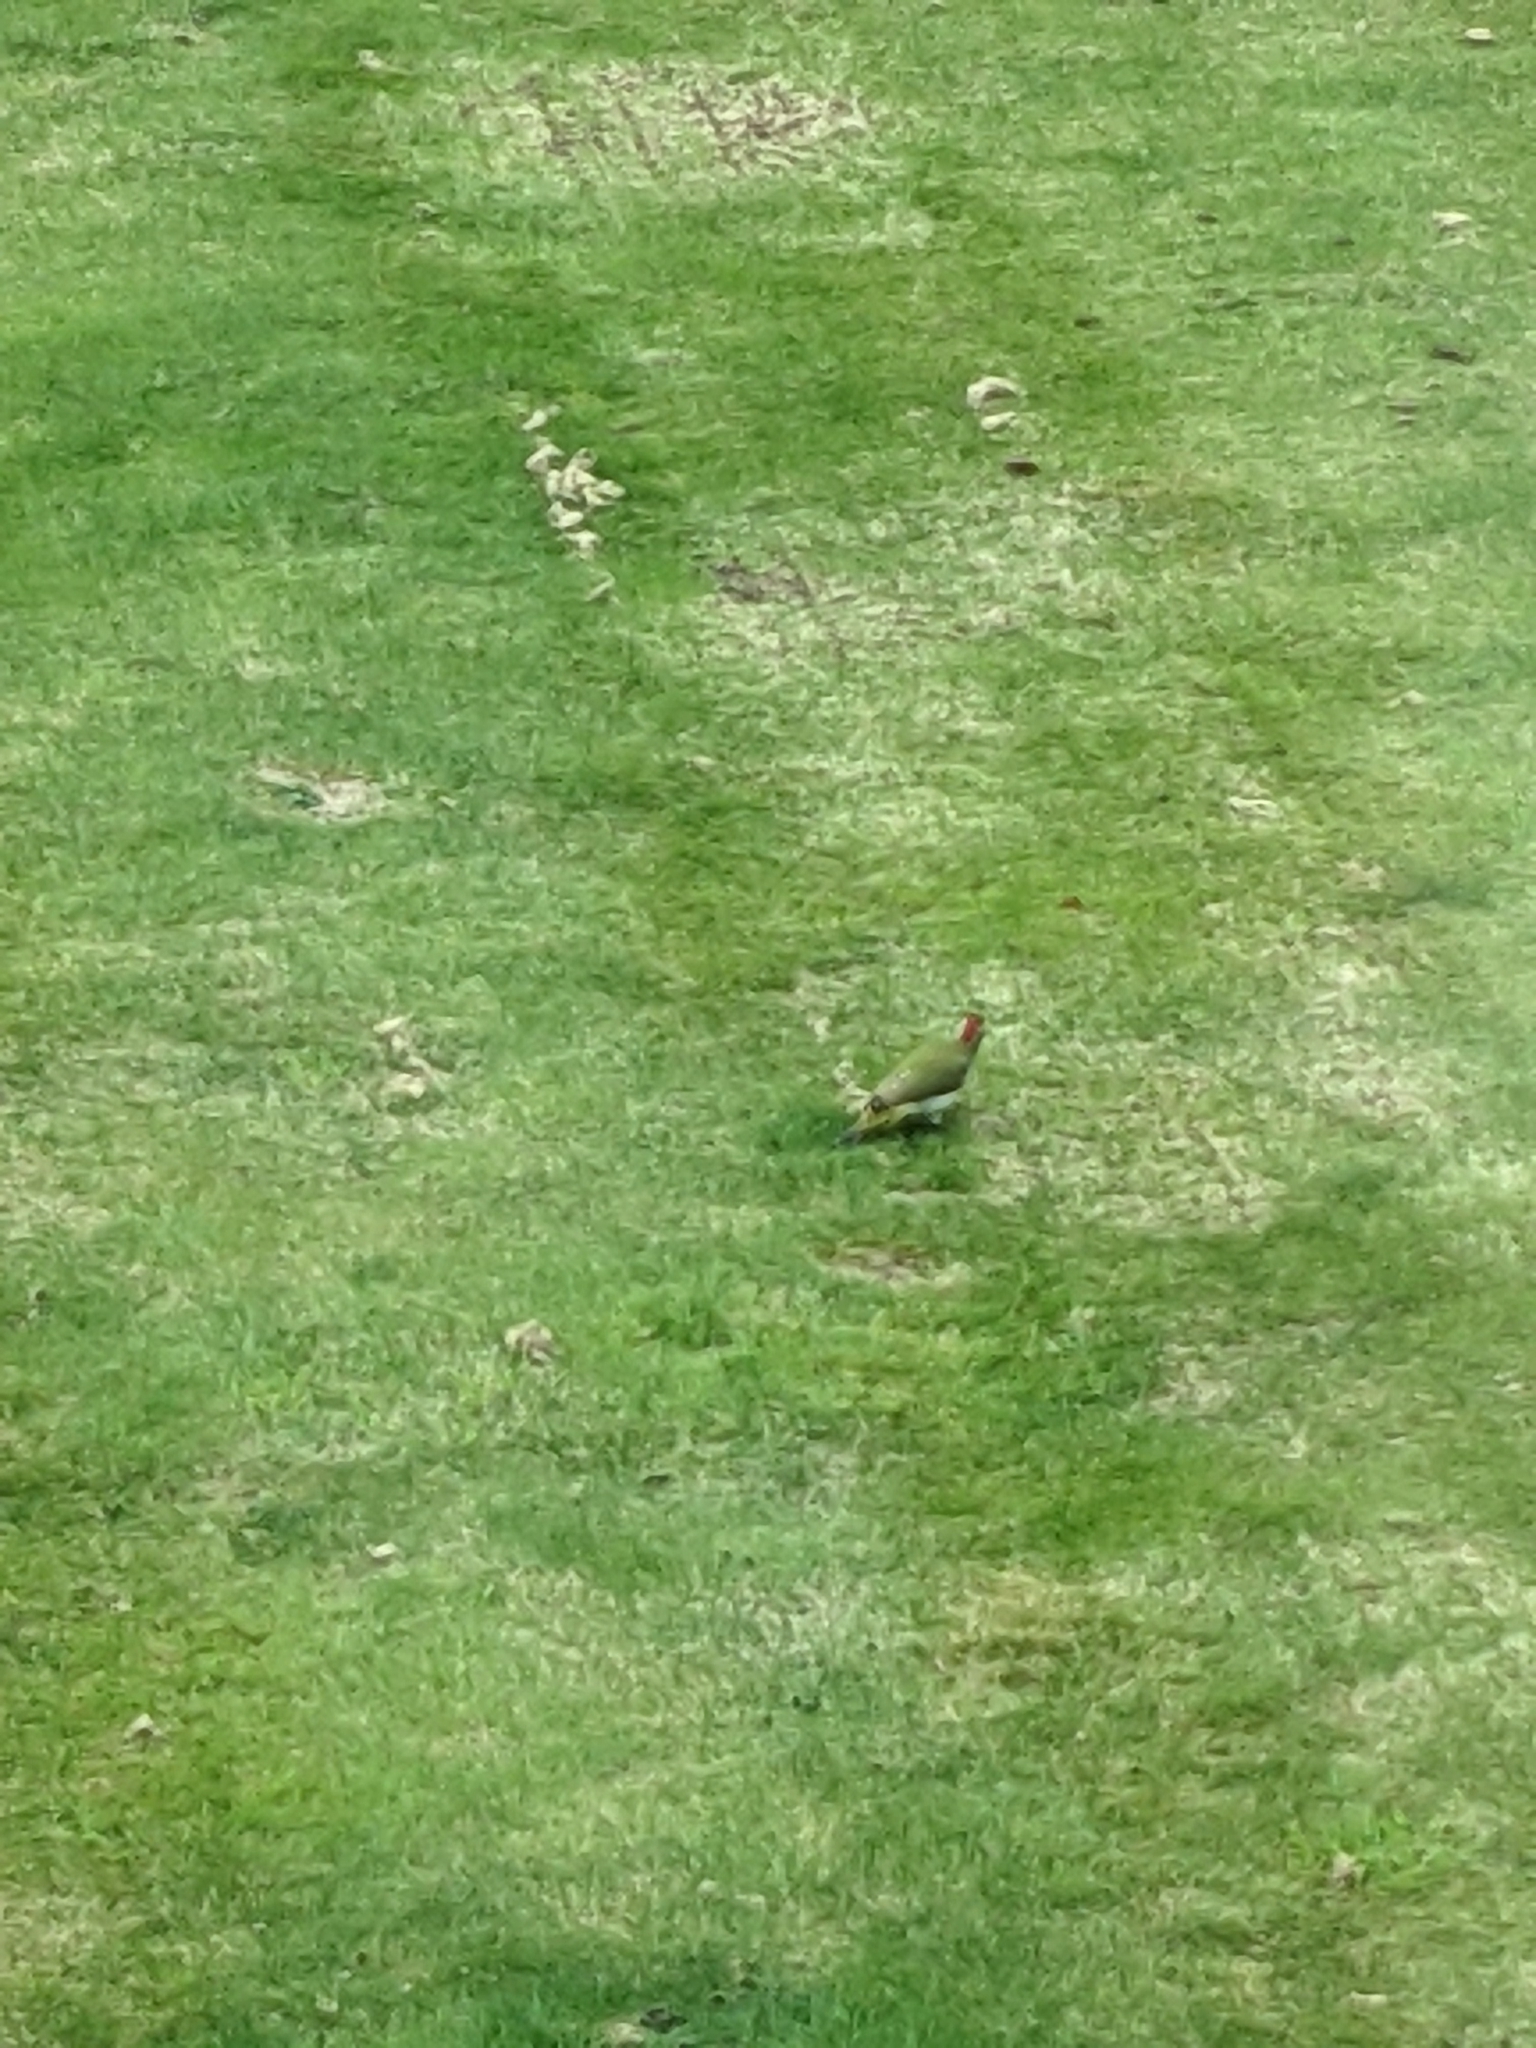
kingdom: Animalia
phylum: Chordata
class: Aves
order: Piciformes
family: Picidae
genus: Picus
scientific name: Picus viridis
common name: European green woodpecker
